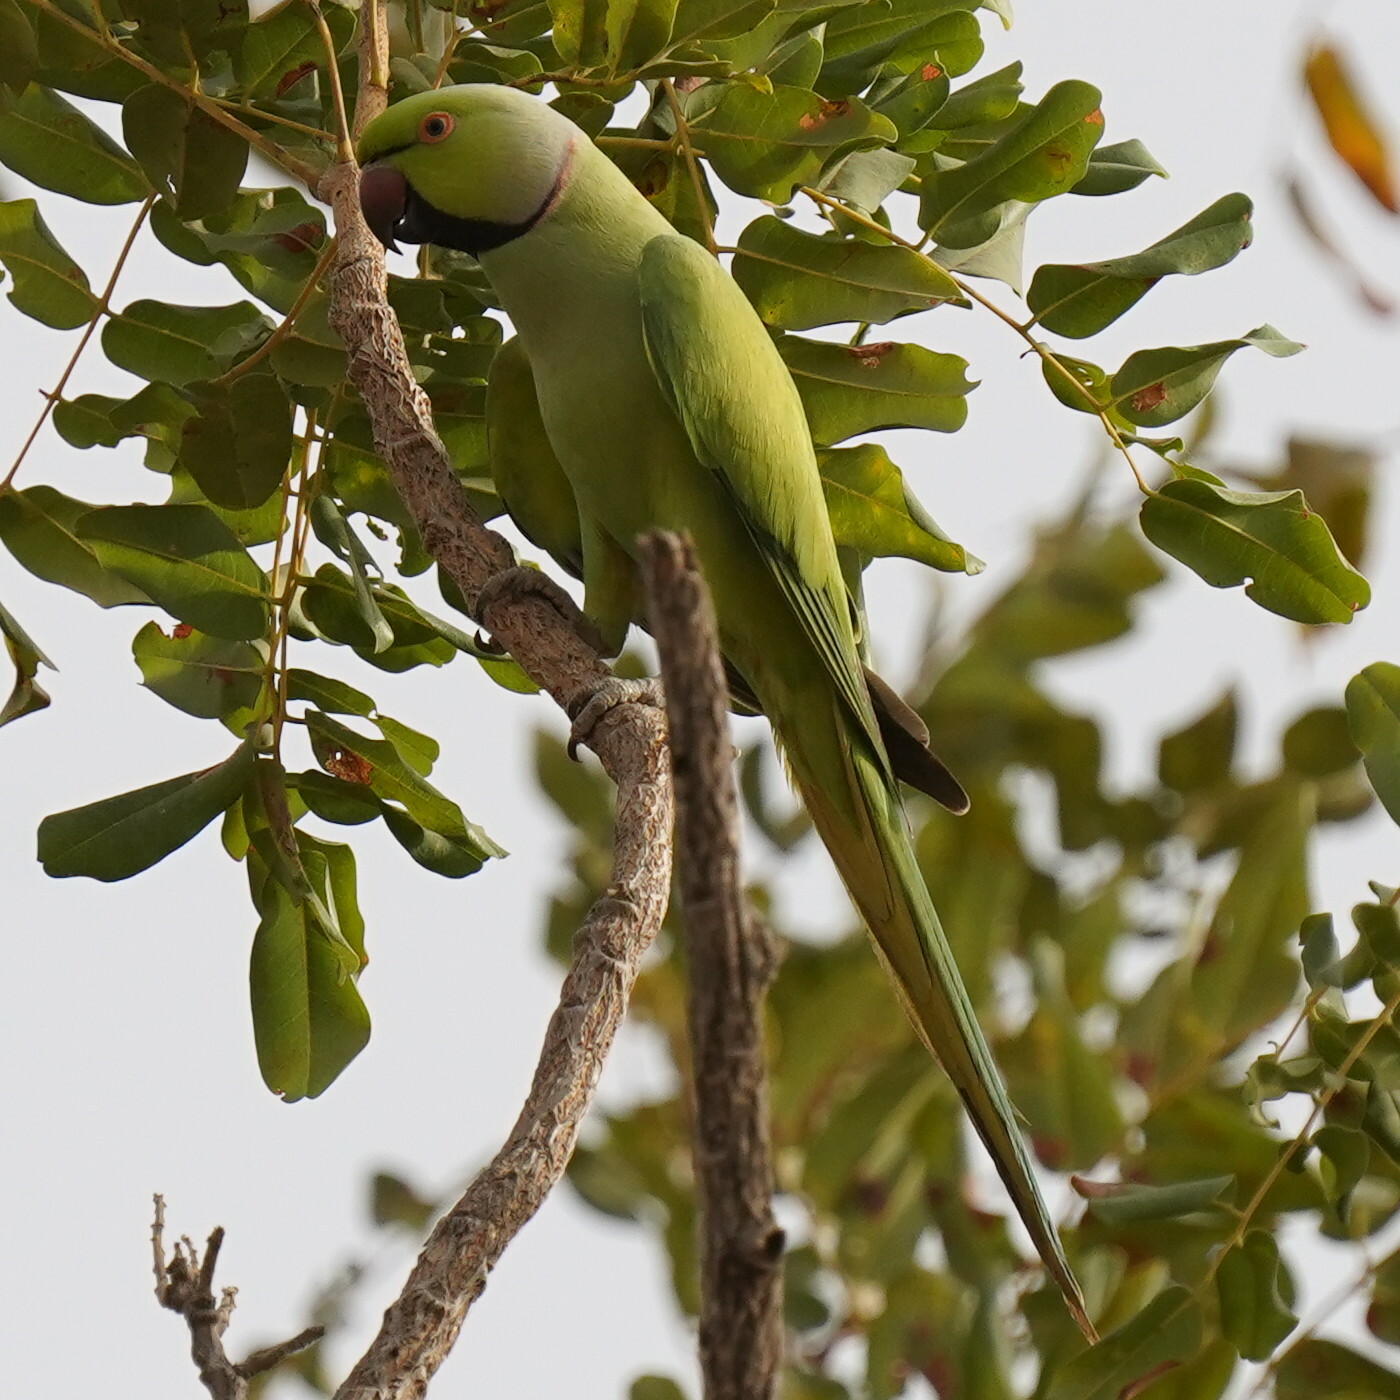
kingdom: Animalia
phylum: Chordata
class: Aves
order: Psittaciformes
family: Psittacidae
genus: Psittacula
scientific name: Psittacula krameri
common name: Rose-ringed parakeet
